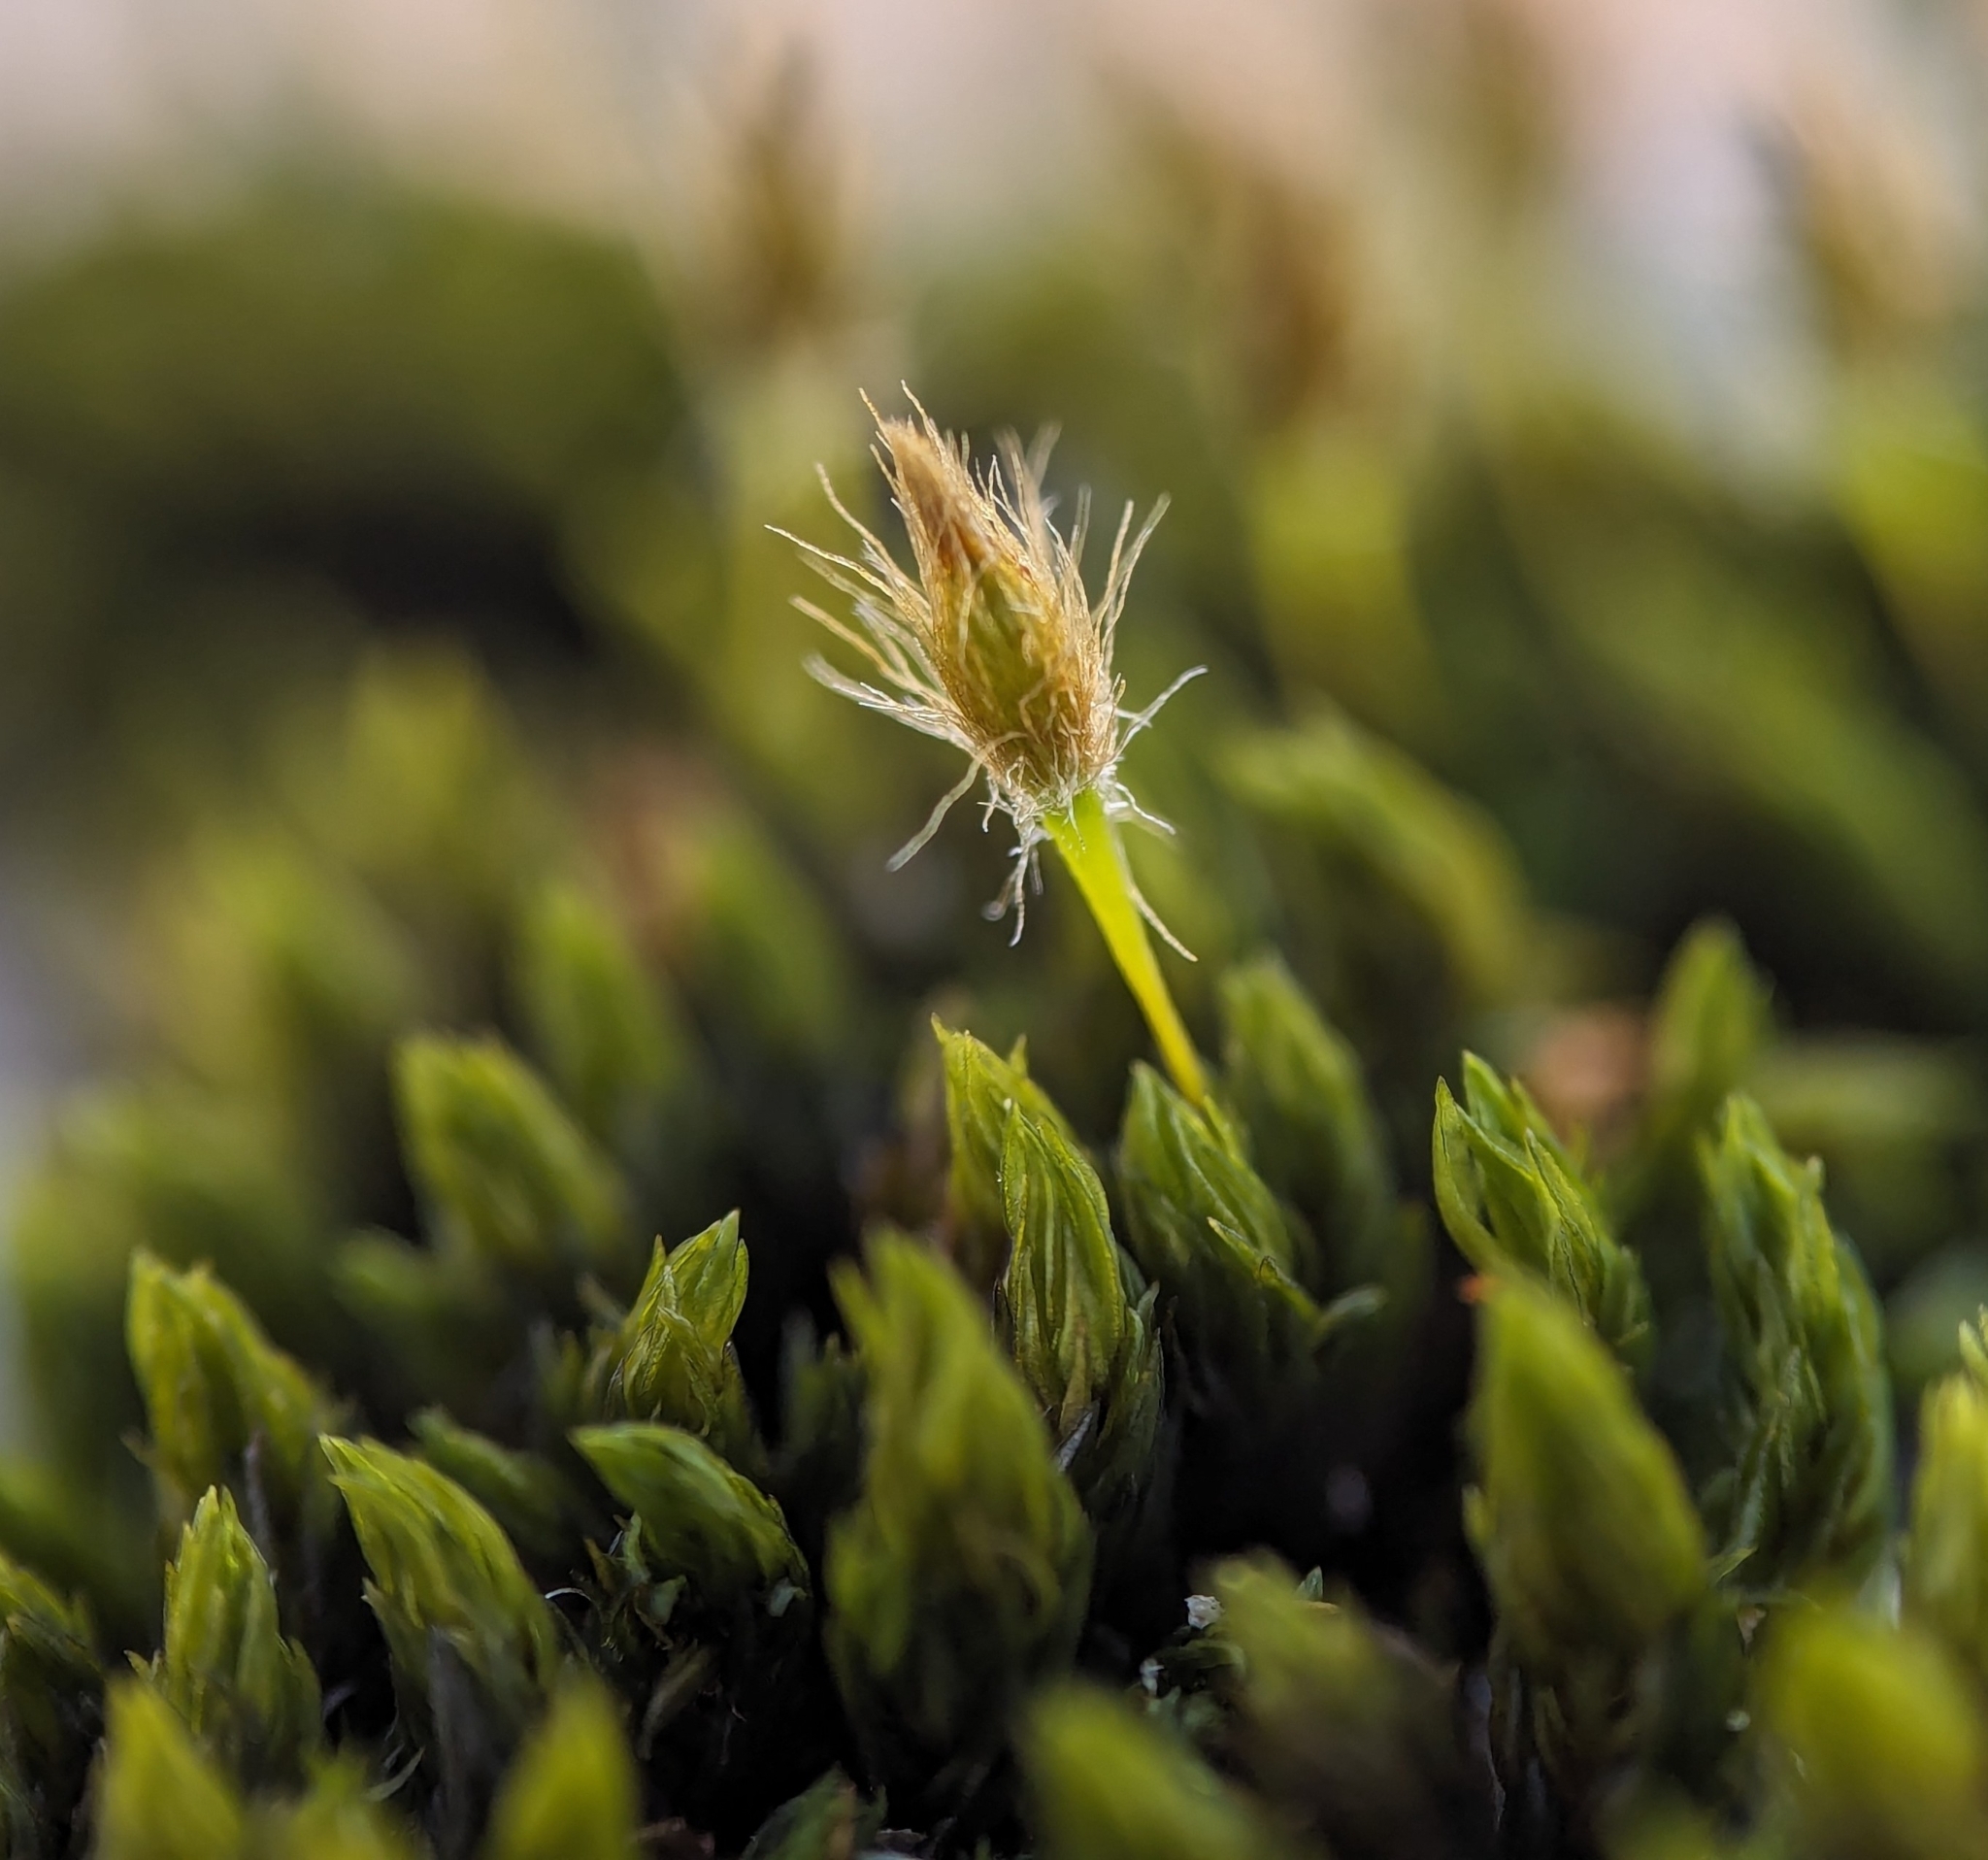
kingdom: Plantae
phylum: Bryophyta
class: Bryopsida
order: Orthotrichales
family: Orthotrichaceae
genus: Ulota
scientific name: Ulota hutchinsiae
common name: Hutchins' pincushion
